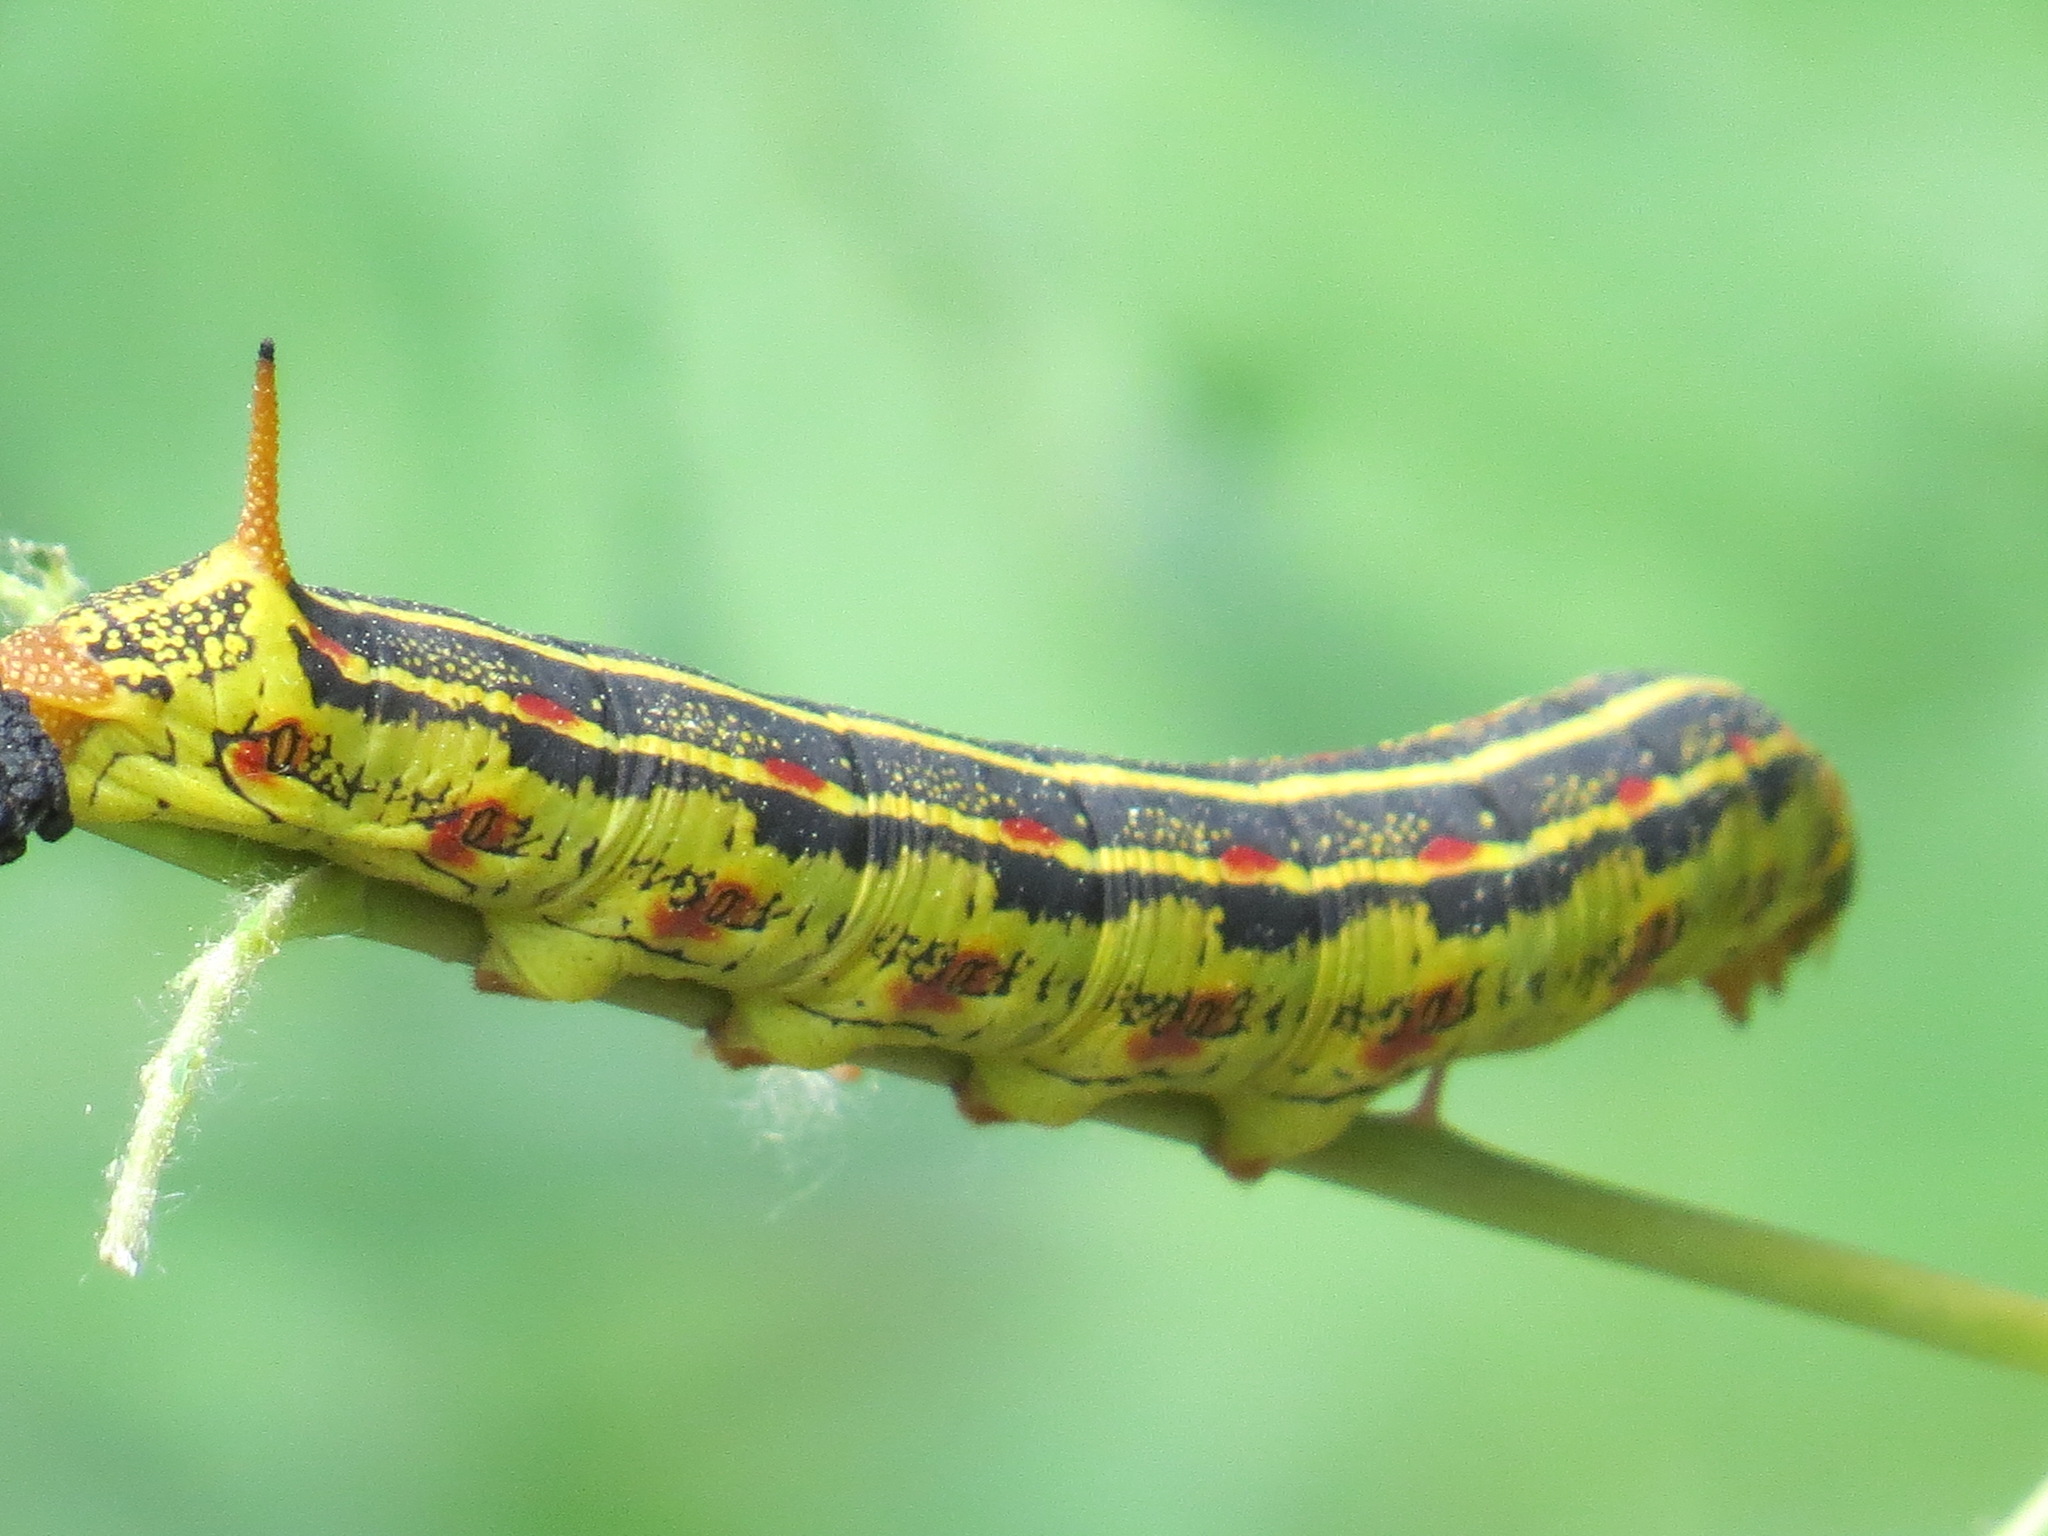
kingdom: Animalia
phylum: Arthropoda
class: Insecta
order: Lepidoptera
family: Sphingidae
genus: Hyles
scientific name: Hyles lineata
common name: White-lined sphinx
